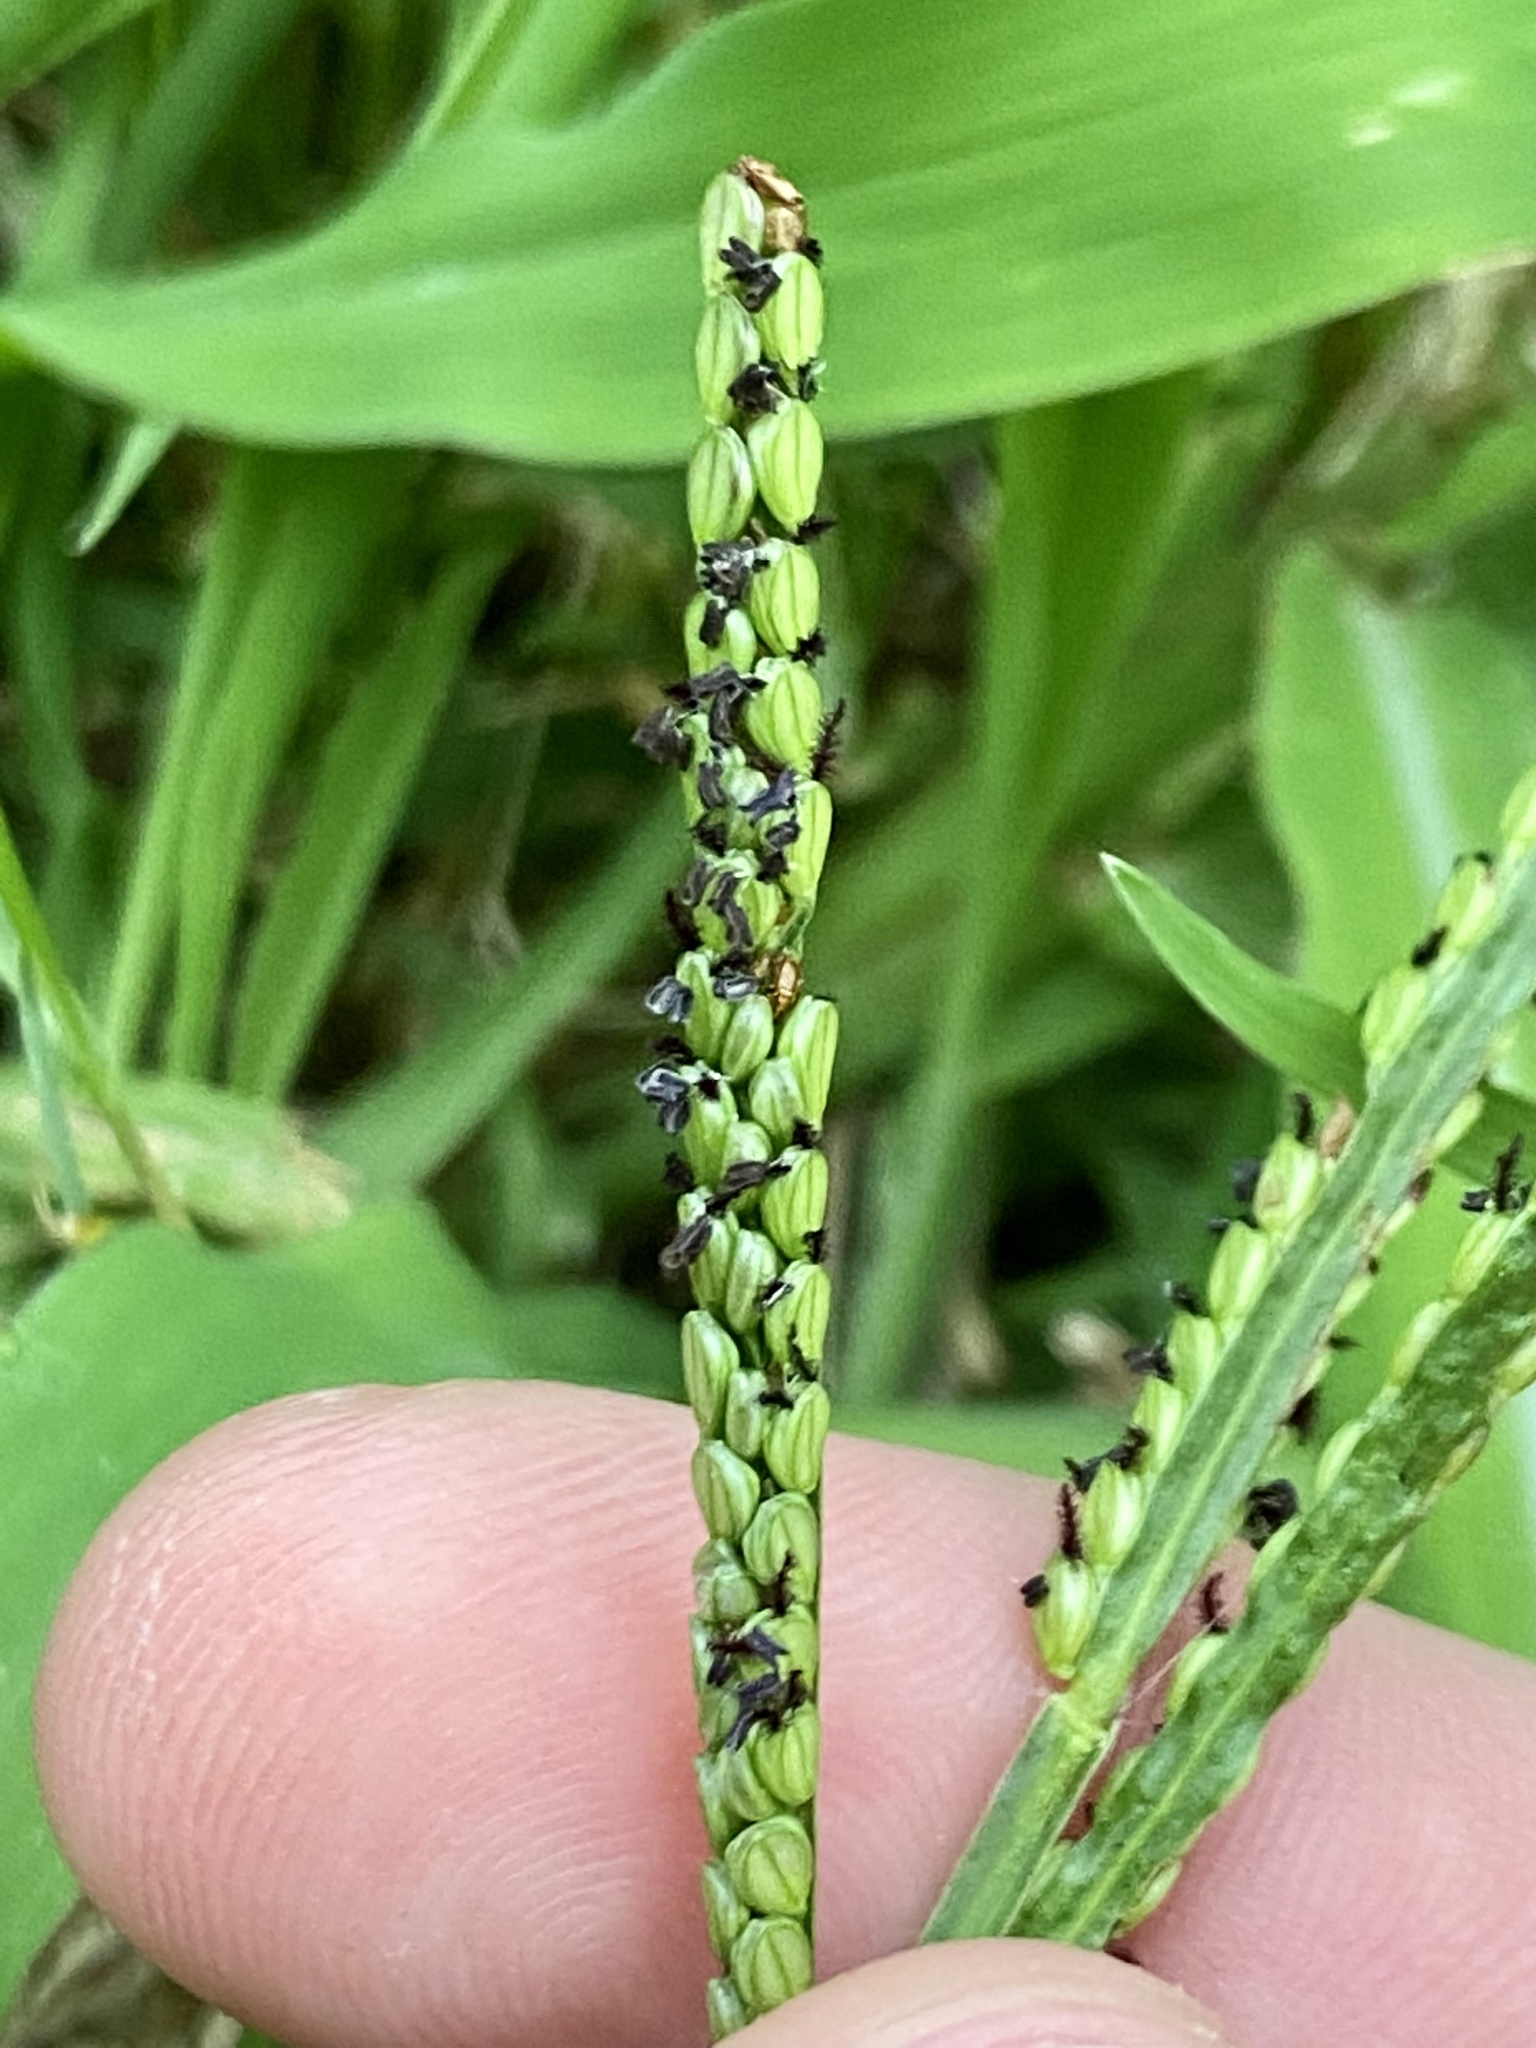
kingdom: Plantae
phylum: Tracheophyta
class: Liliopsida
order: Poales
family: Poaceae
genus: Paspalum
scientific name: Paspalum pubiflorum
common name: Hairy-seed paspalum
